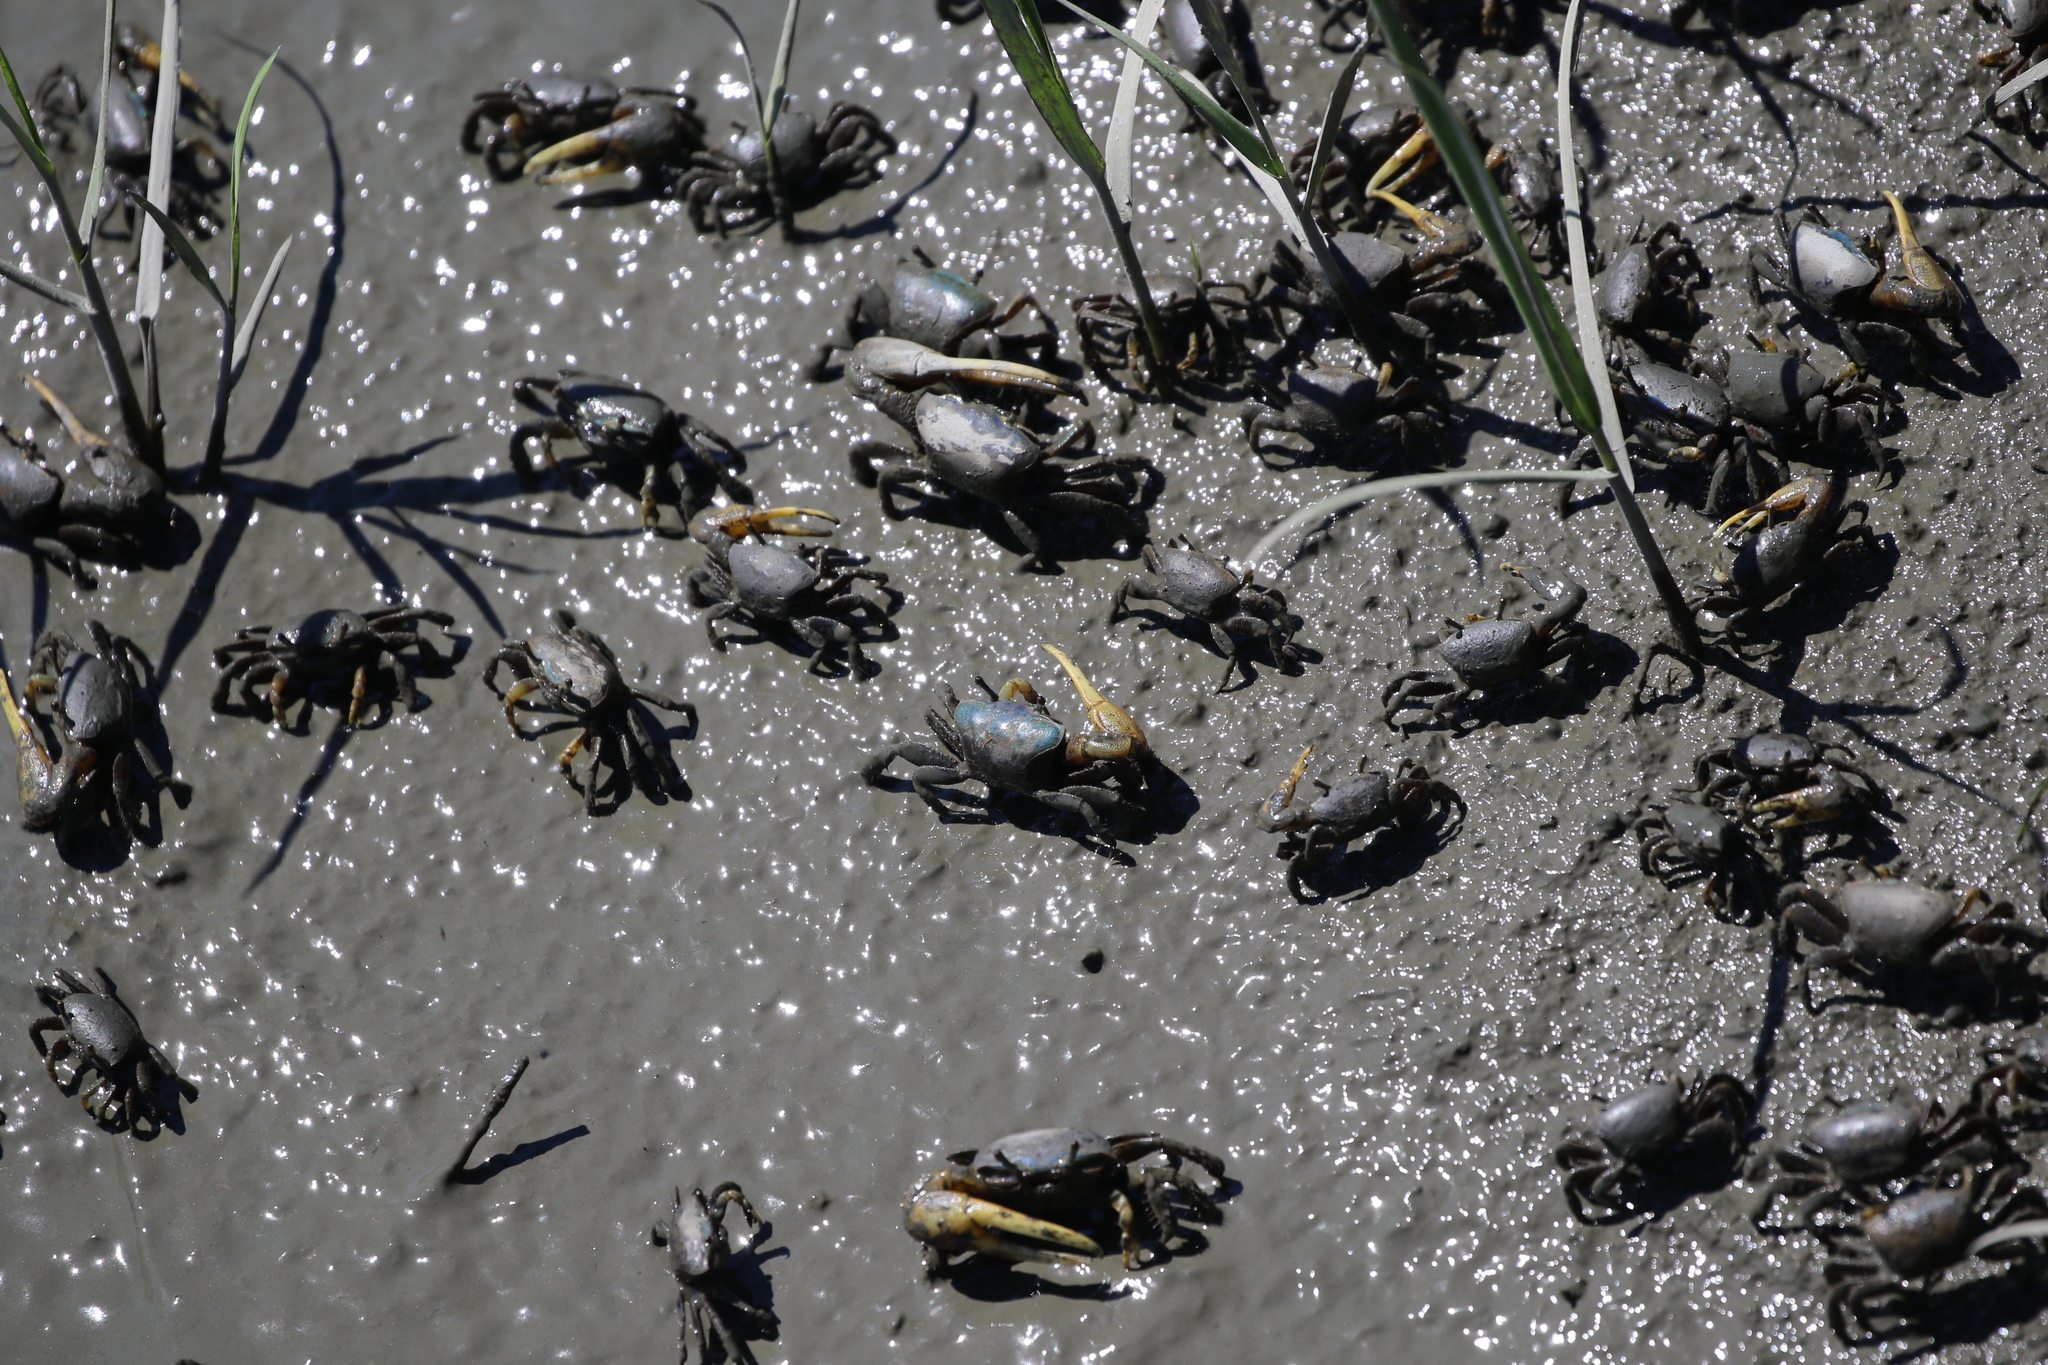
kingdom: Animalia
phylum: Arthropoda
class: Malacostraca
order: Decapoda
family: Ocypodidae
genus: Minuca
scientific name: Minuca pugnax
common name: Mud fiddler crab
